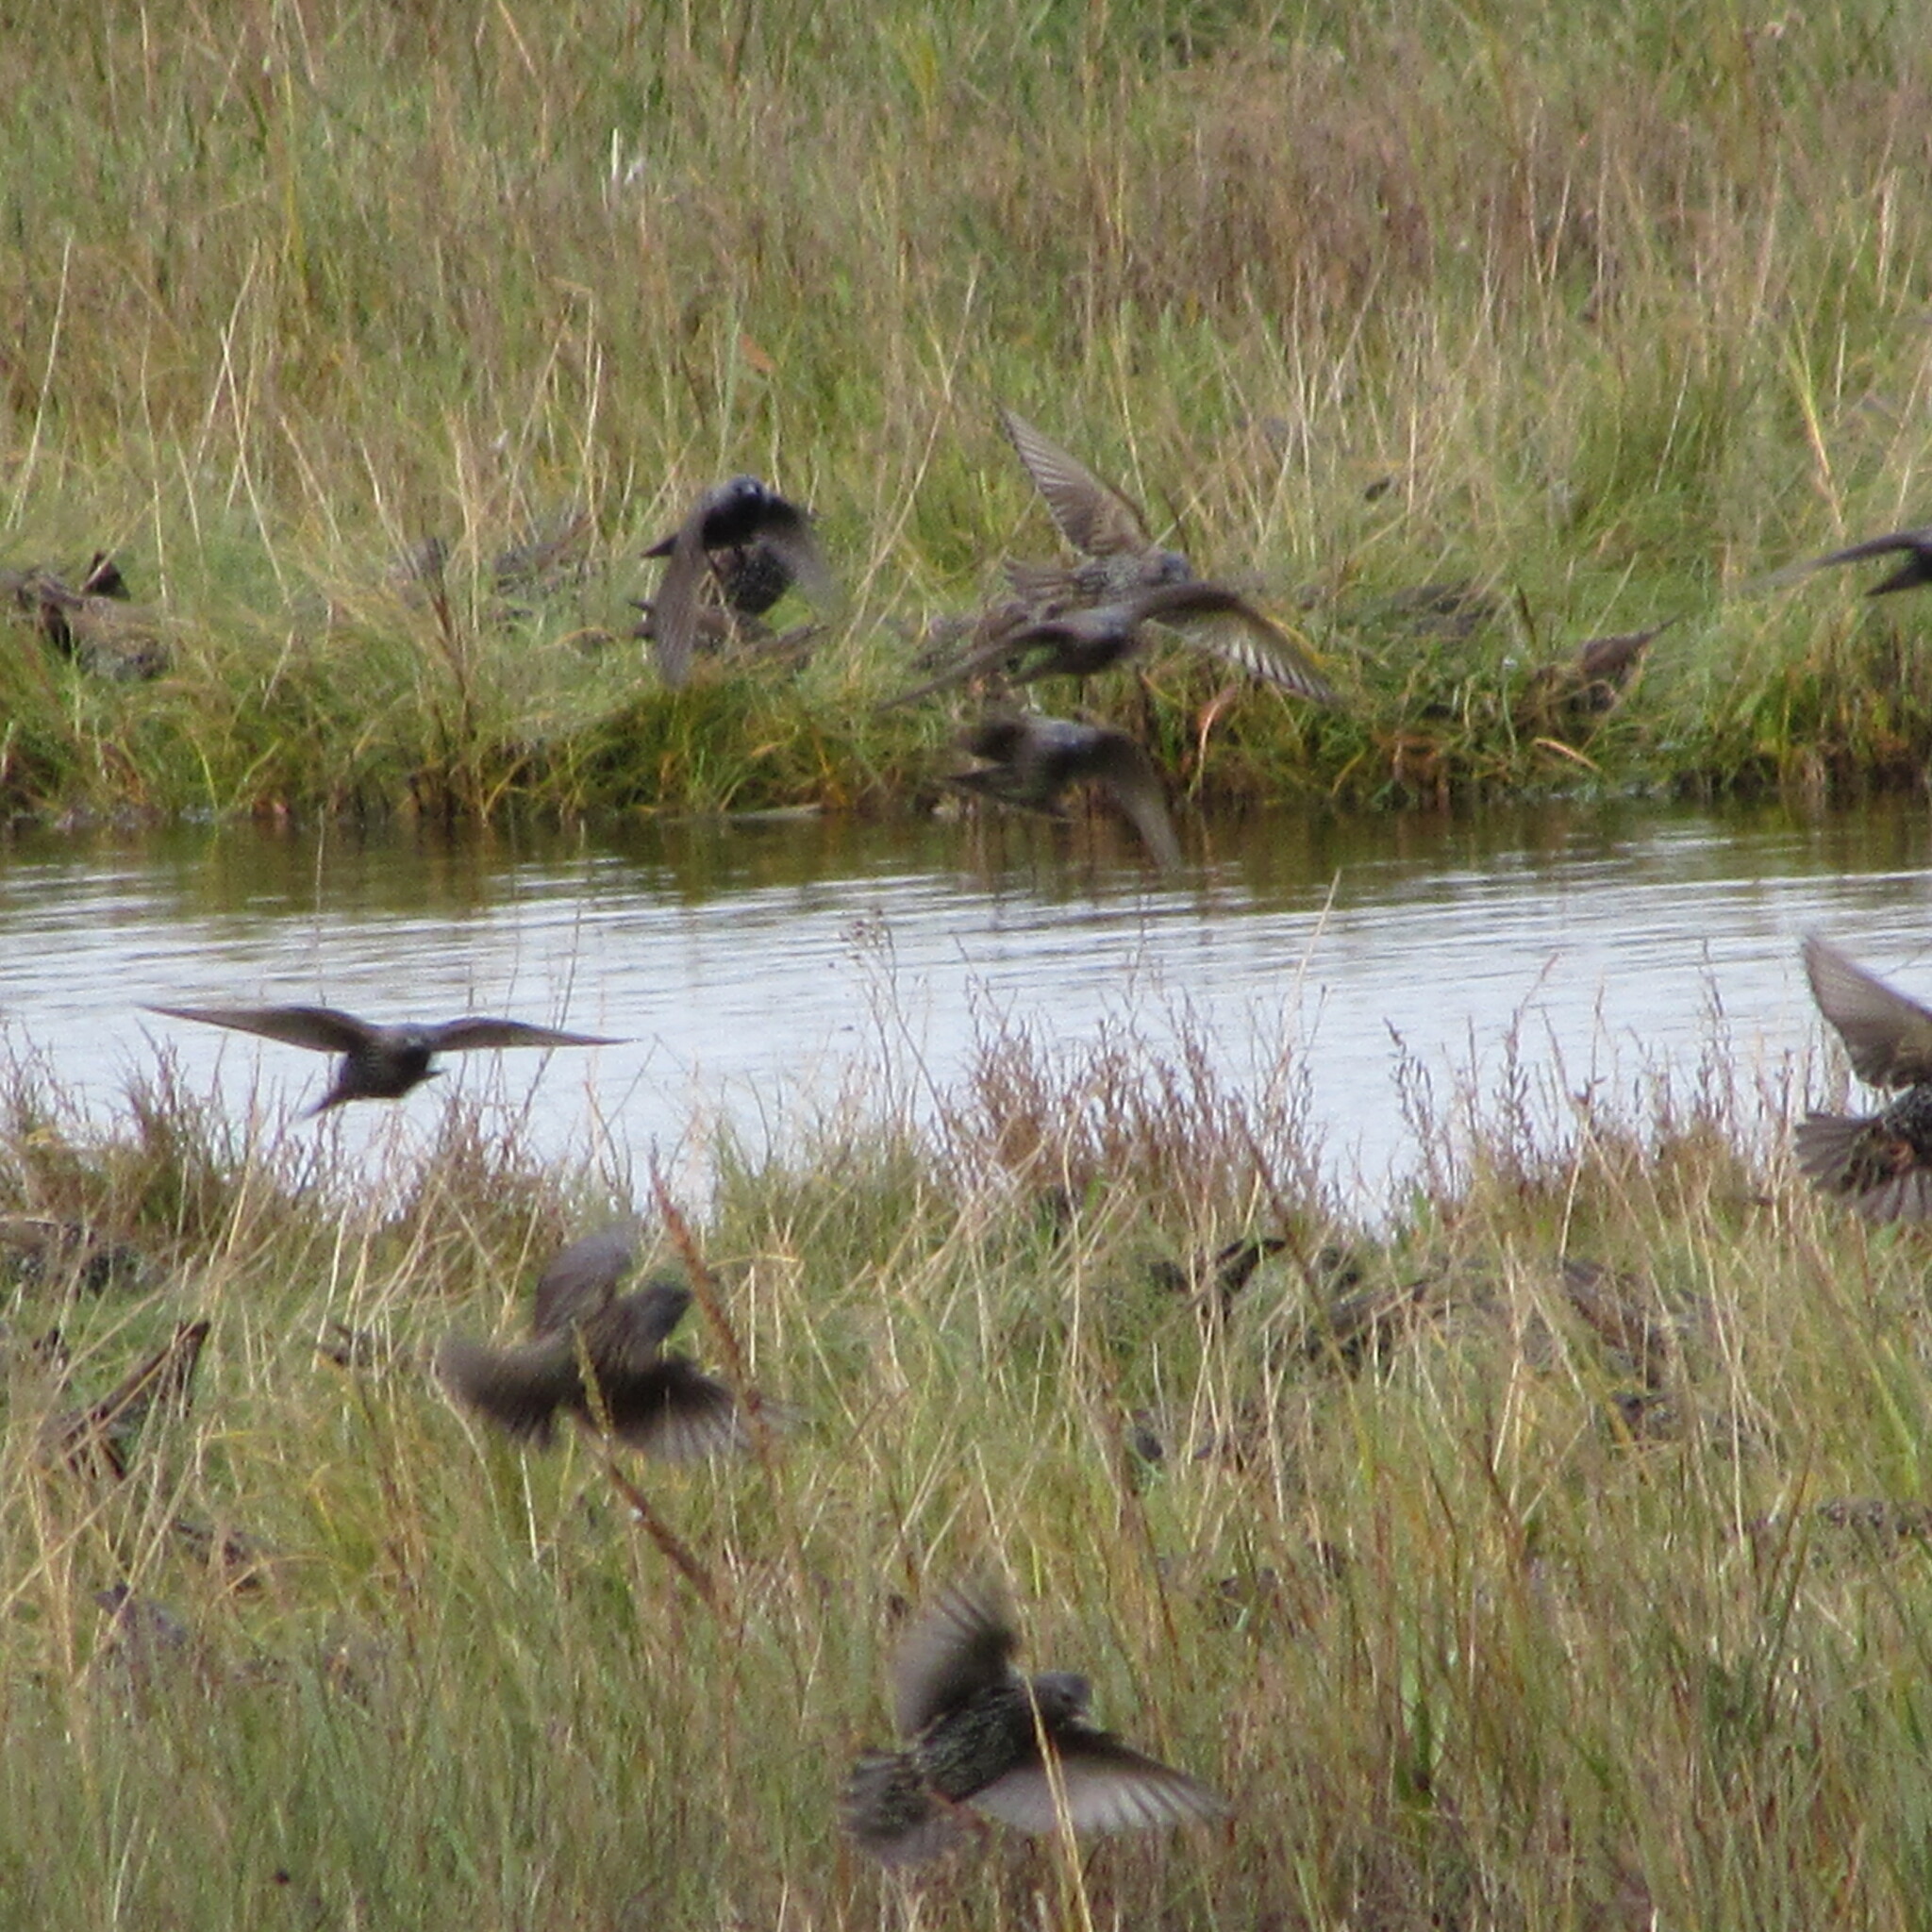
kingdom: Animalia
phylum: Chordata
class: Aves
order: Passeriformes
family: Sturnidae
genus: Sturnus
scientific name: Sturnus vulgaris
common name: Common starling
